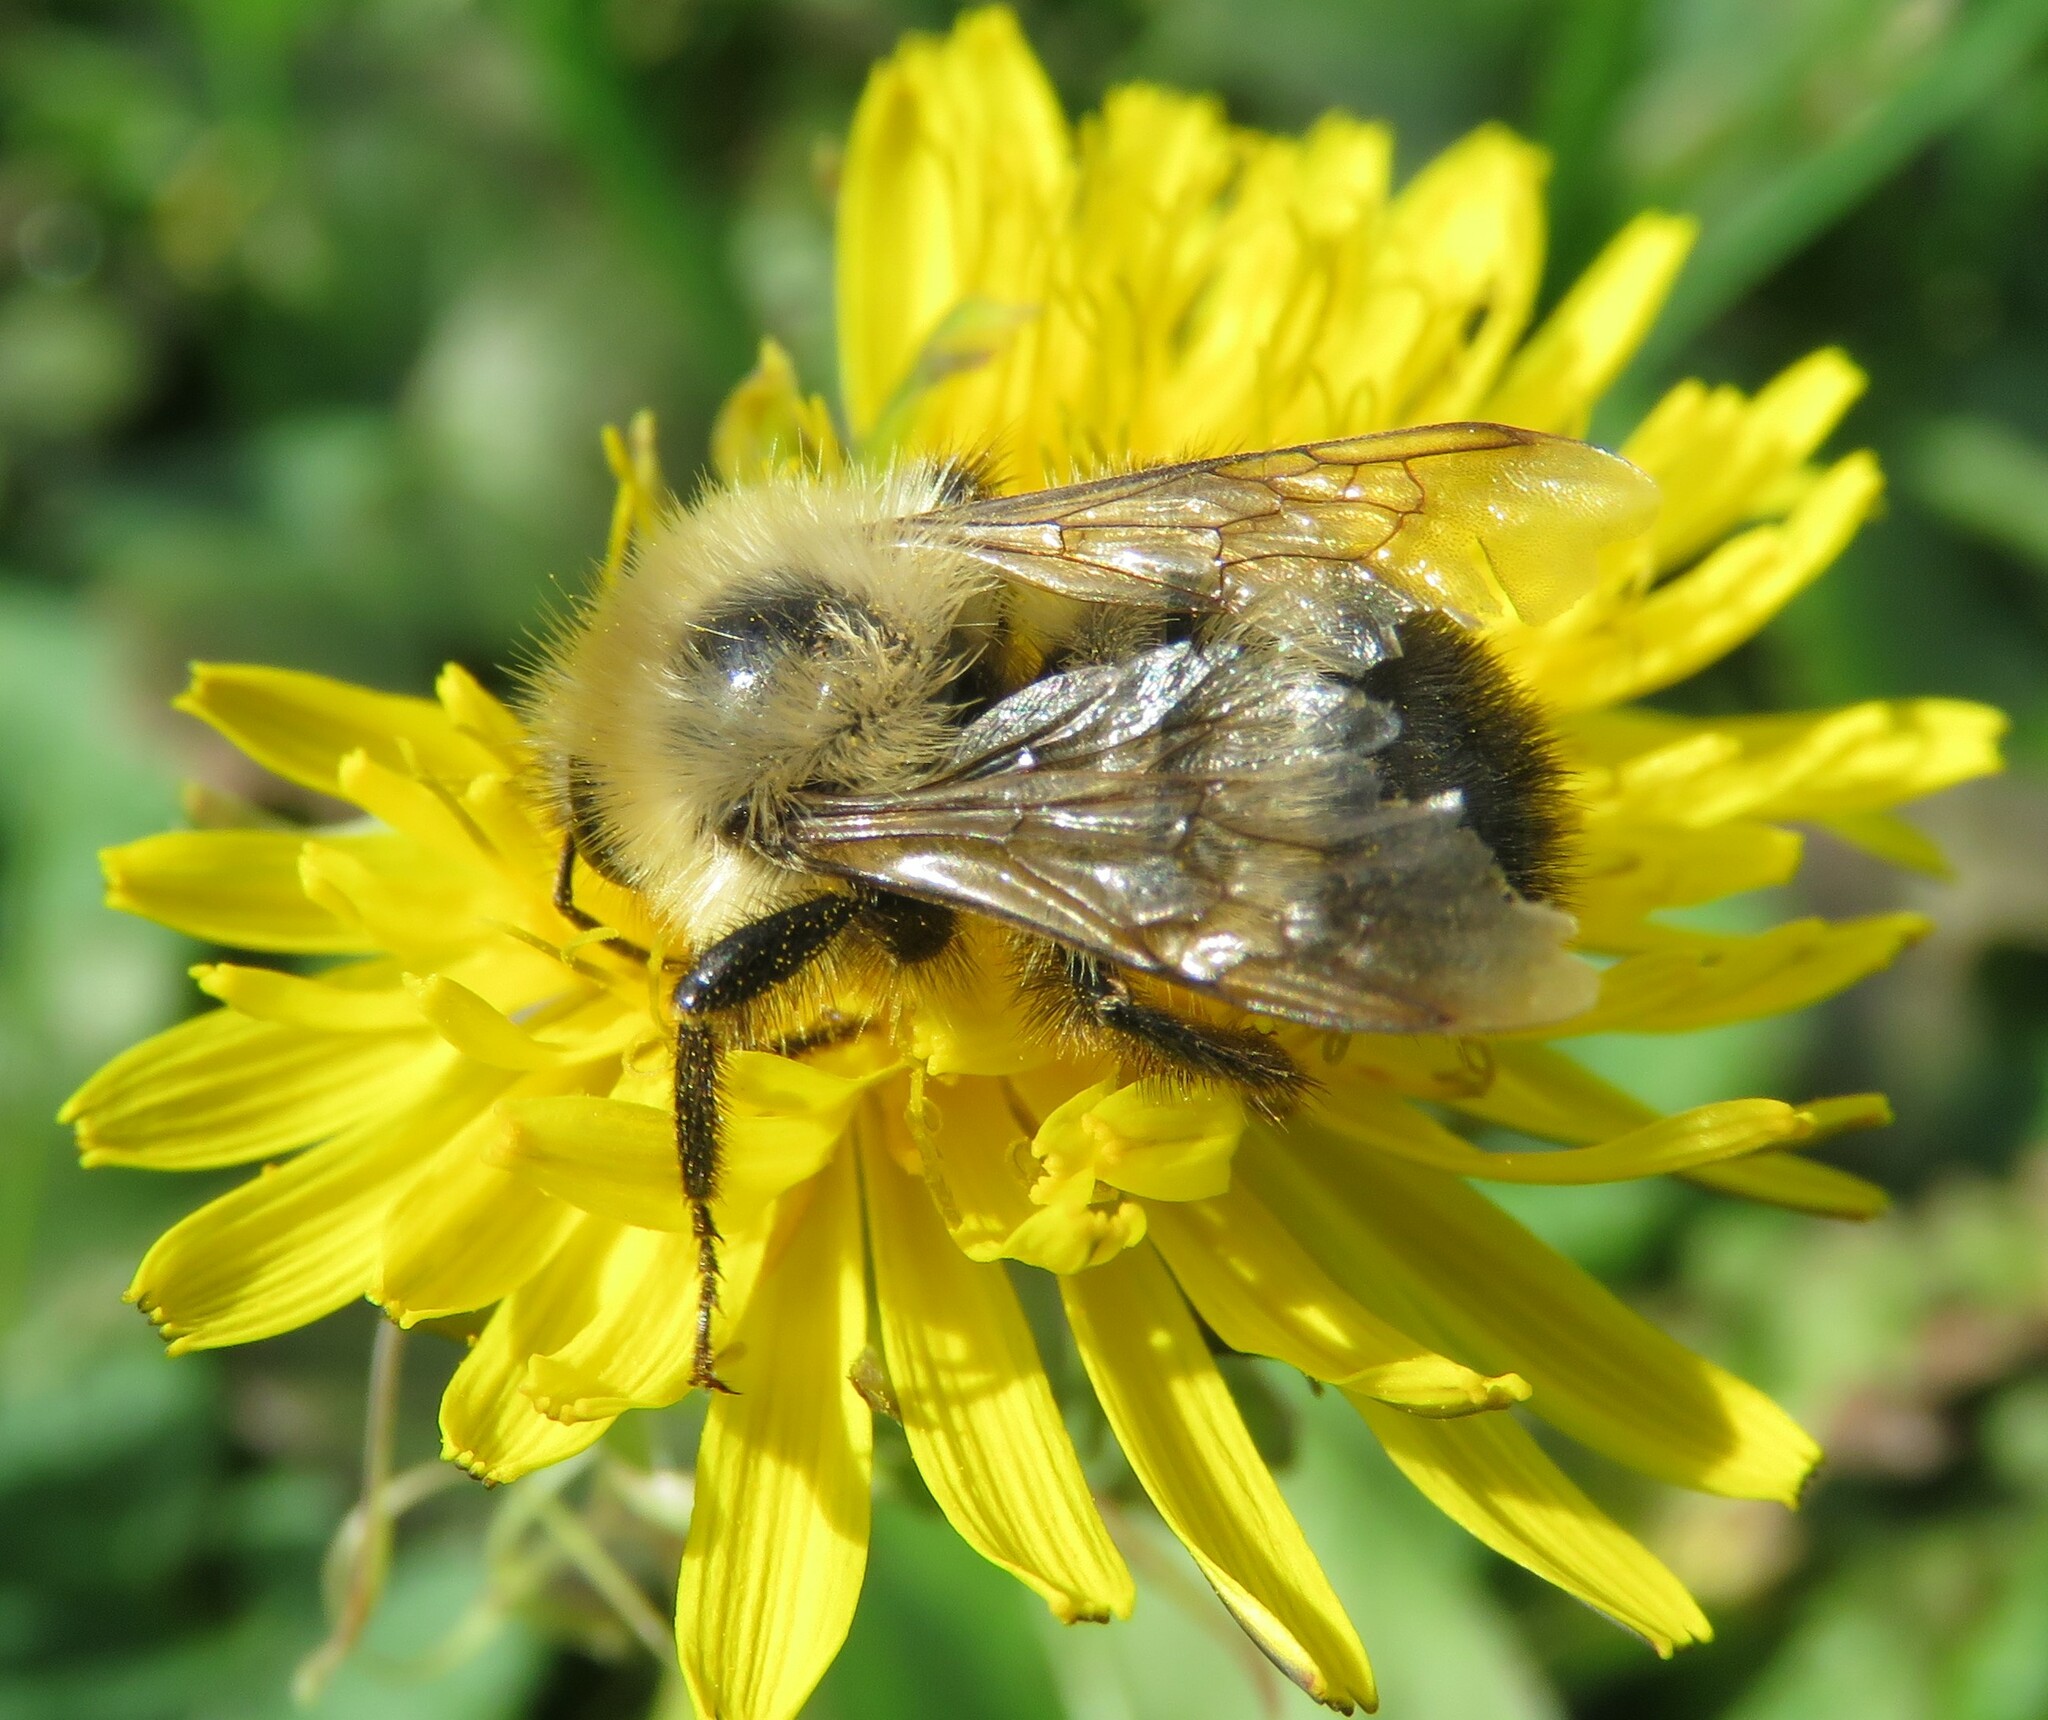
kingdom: Animalia
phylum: Arthropoda
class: Insecta
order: Hymenoptera
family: Apidae
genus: Bombus
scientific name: Bombus vagans
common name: Half-black bumble bee
